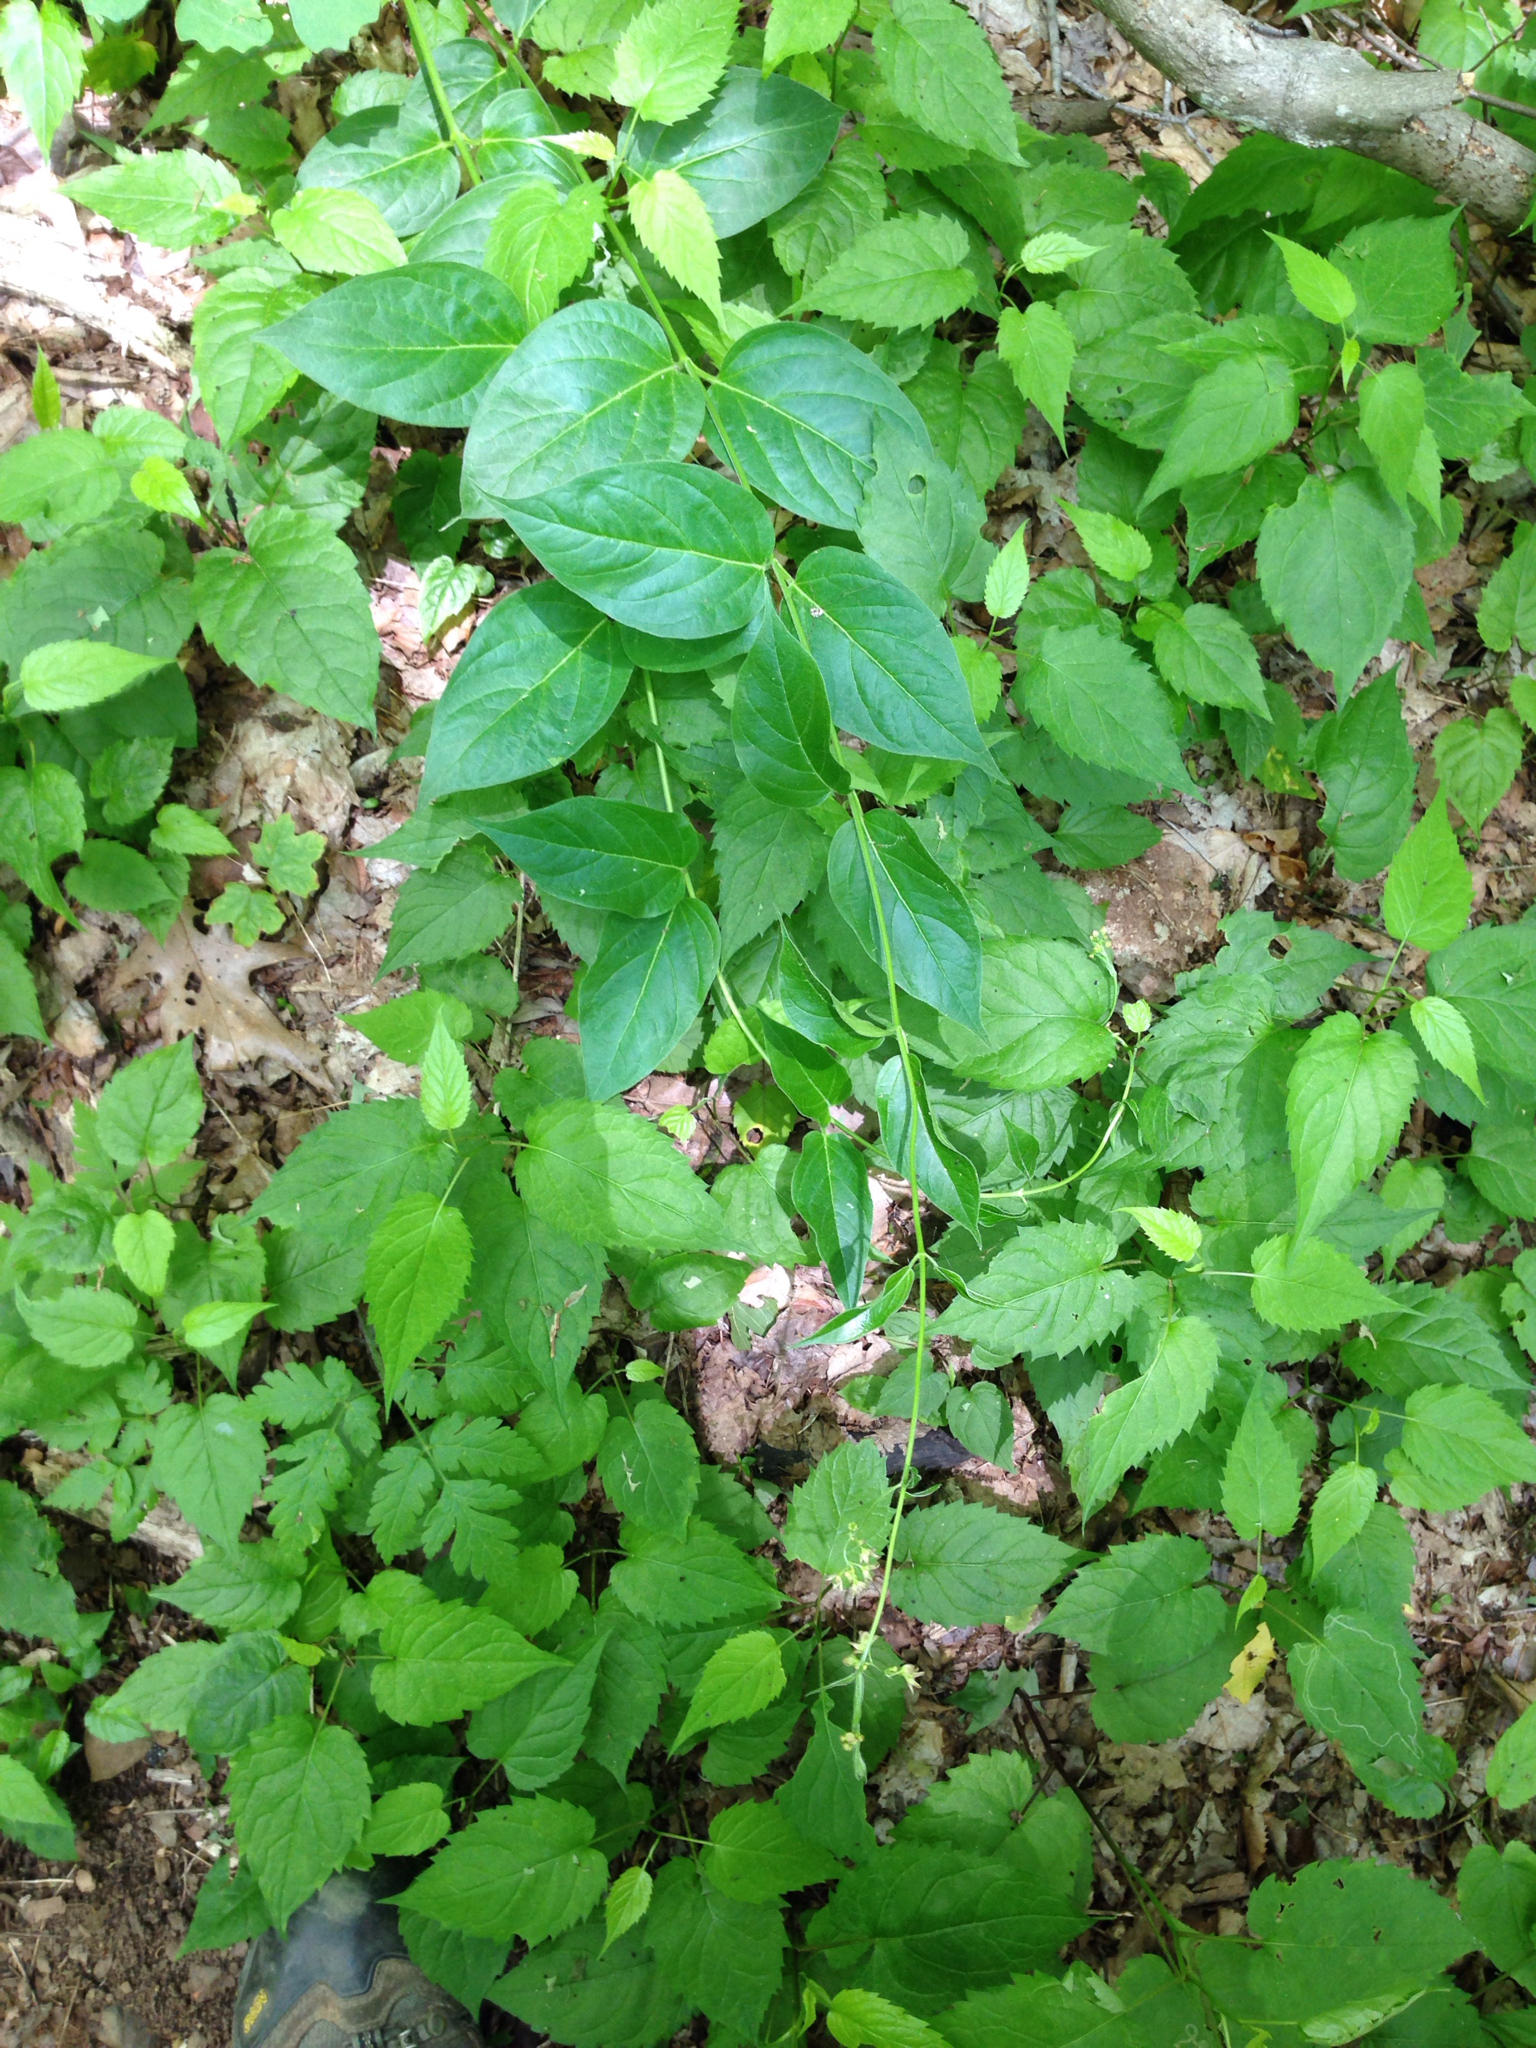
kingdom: Plantae
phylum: Tracheophyta
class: Magnoliopsida
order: Gentianales
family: Apocynaceae
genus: Vincetoxicum
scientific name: Vincetoxicum rossicum
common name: Dog-strangling vine
